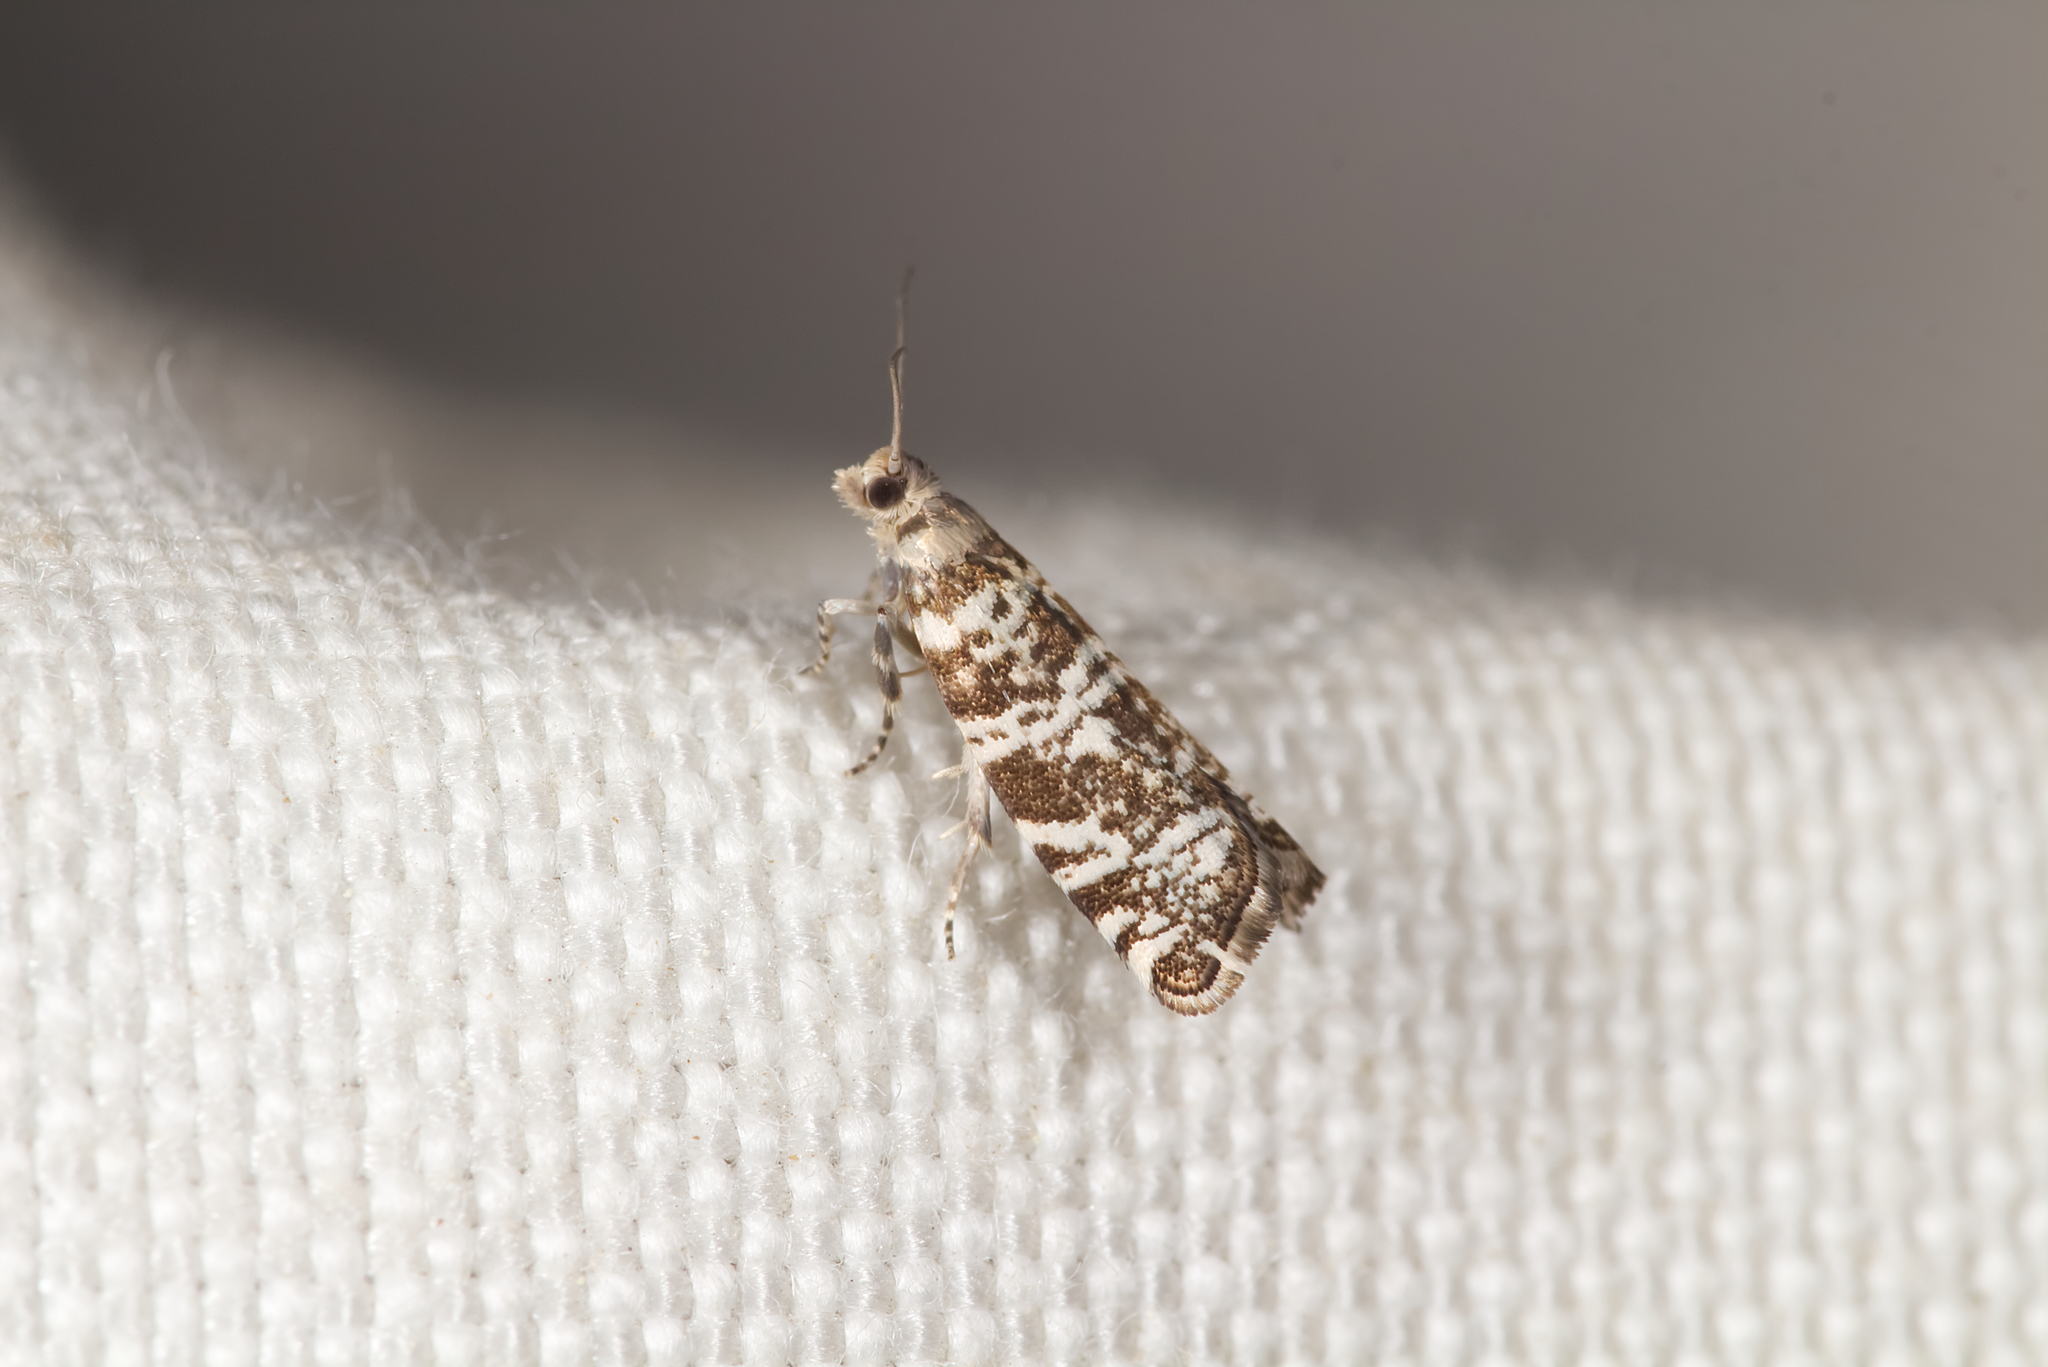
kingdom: Animalia
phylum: Arthropoda
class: Insecta
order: Lepidoptera
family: Tortricidae
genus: Epinotia
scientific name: Epinotia tedella
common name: Common spruce bell
